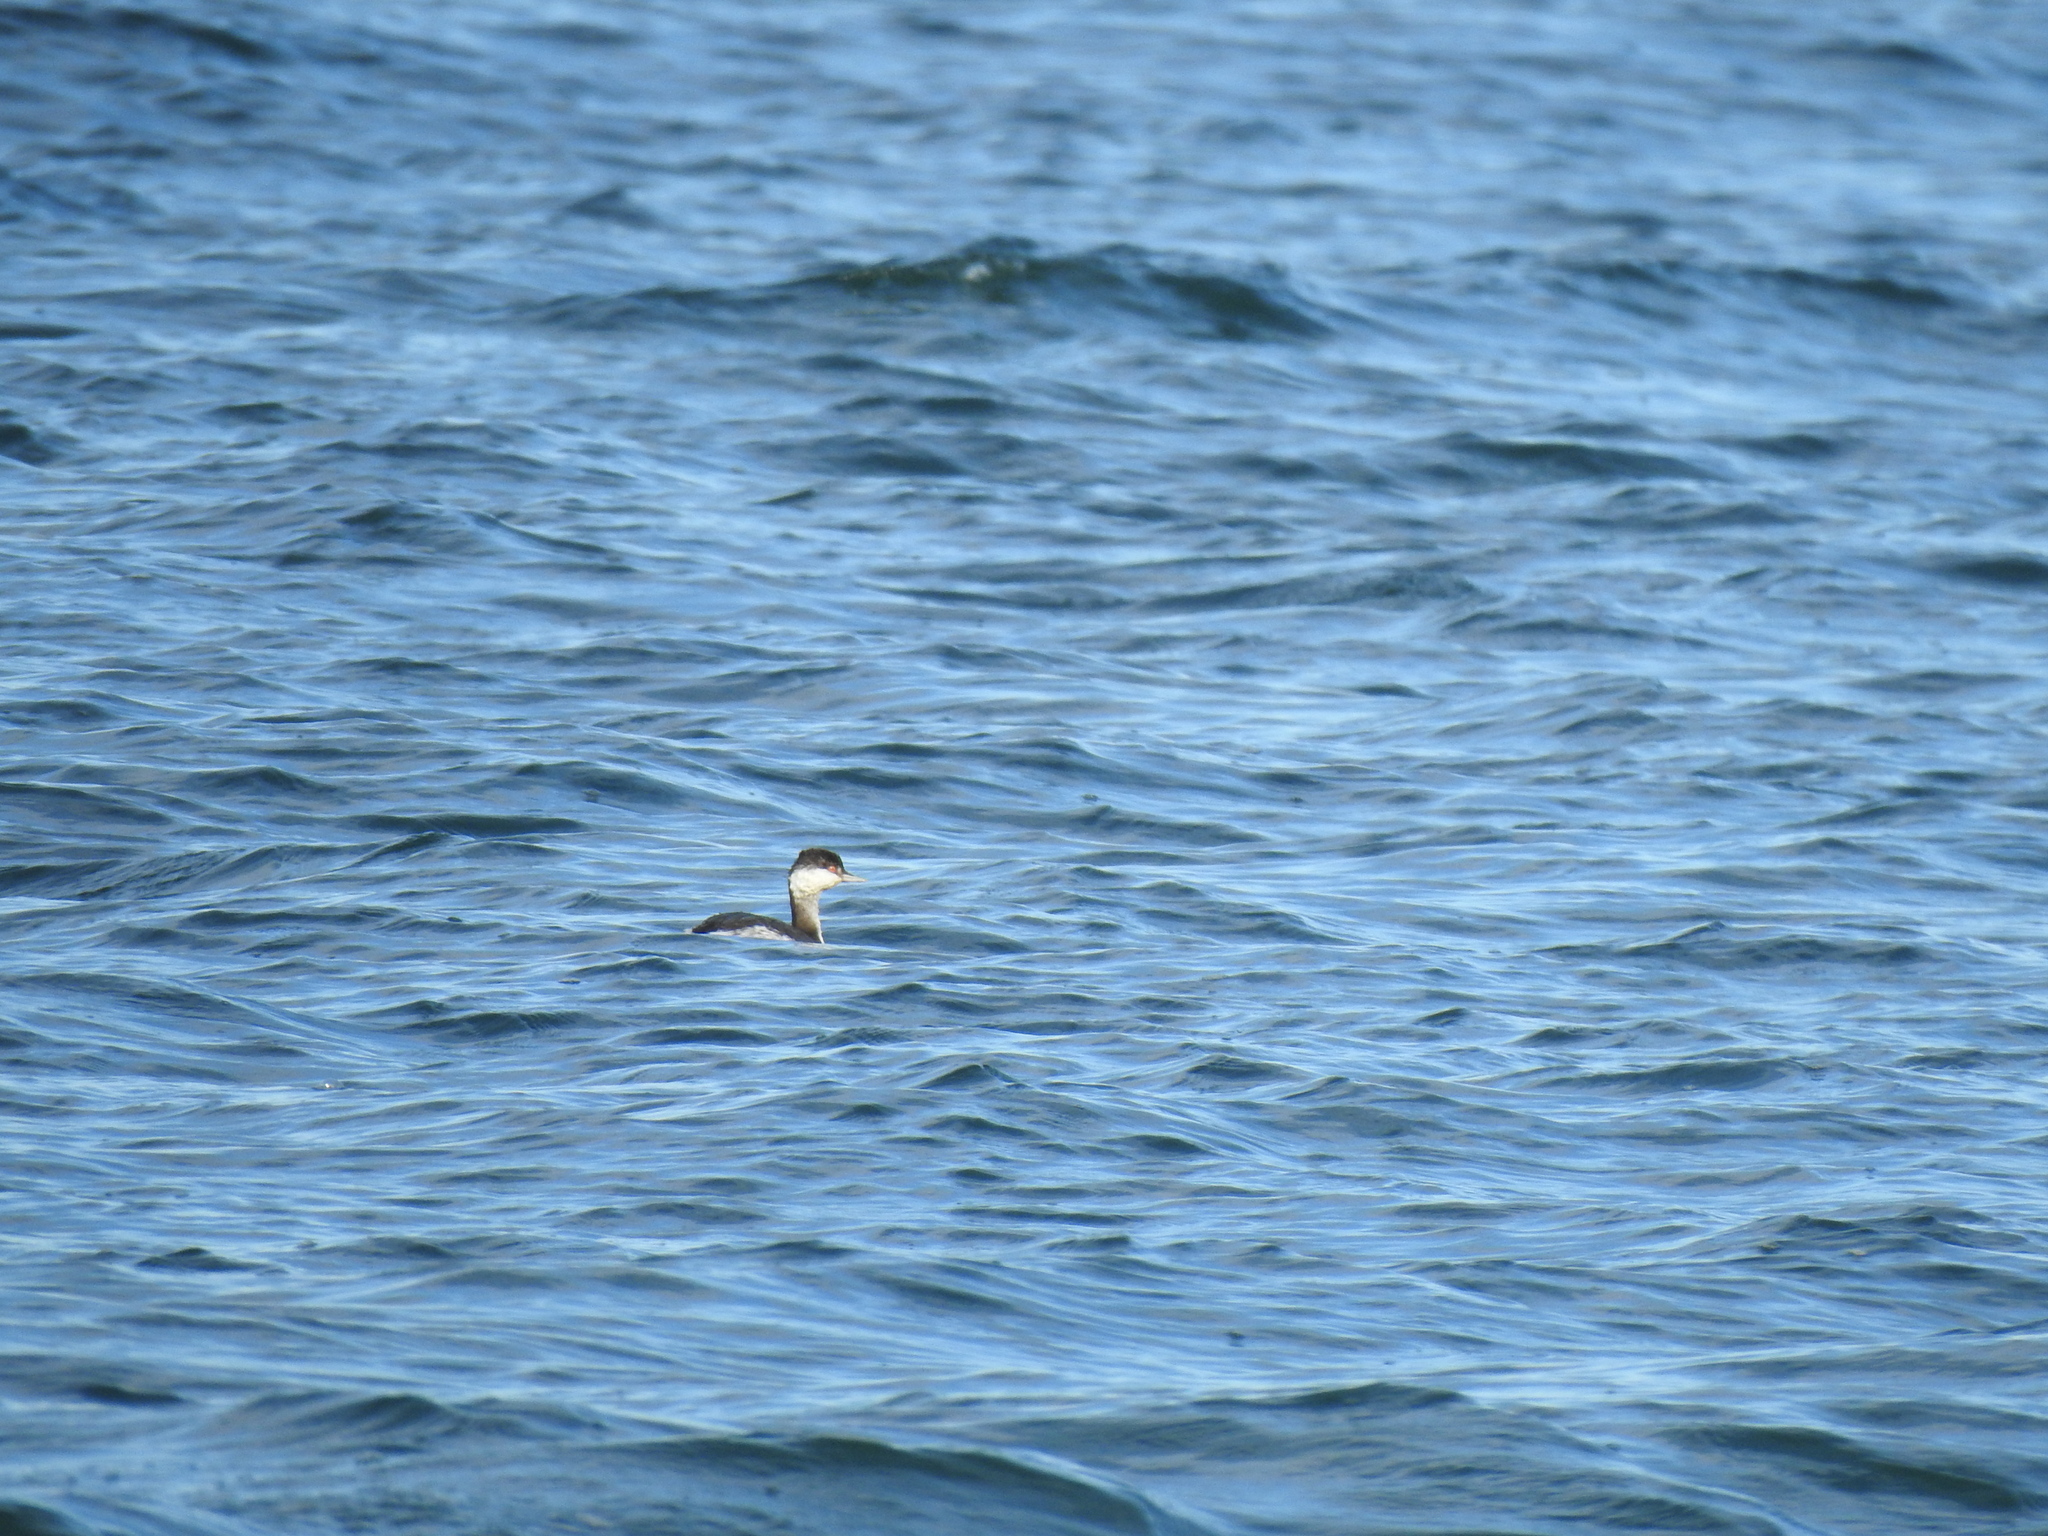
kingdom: Animalia
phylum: Chordata
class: Aves
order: Podicipediformes
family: Podicipedidae
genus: Podiceps
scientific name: Podiceps auritus
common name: Horned grebe
